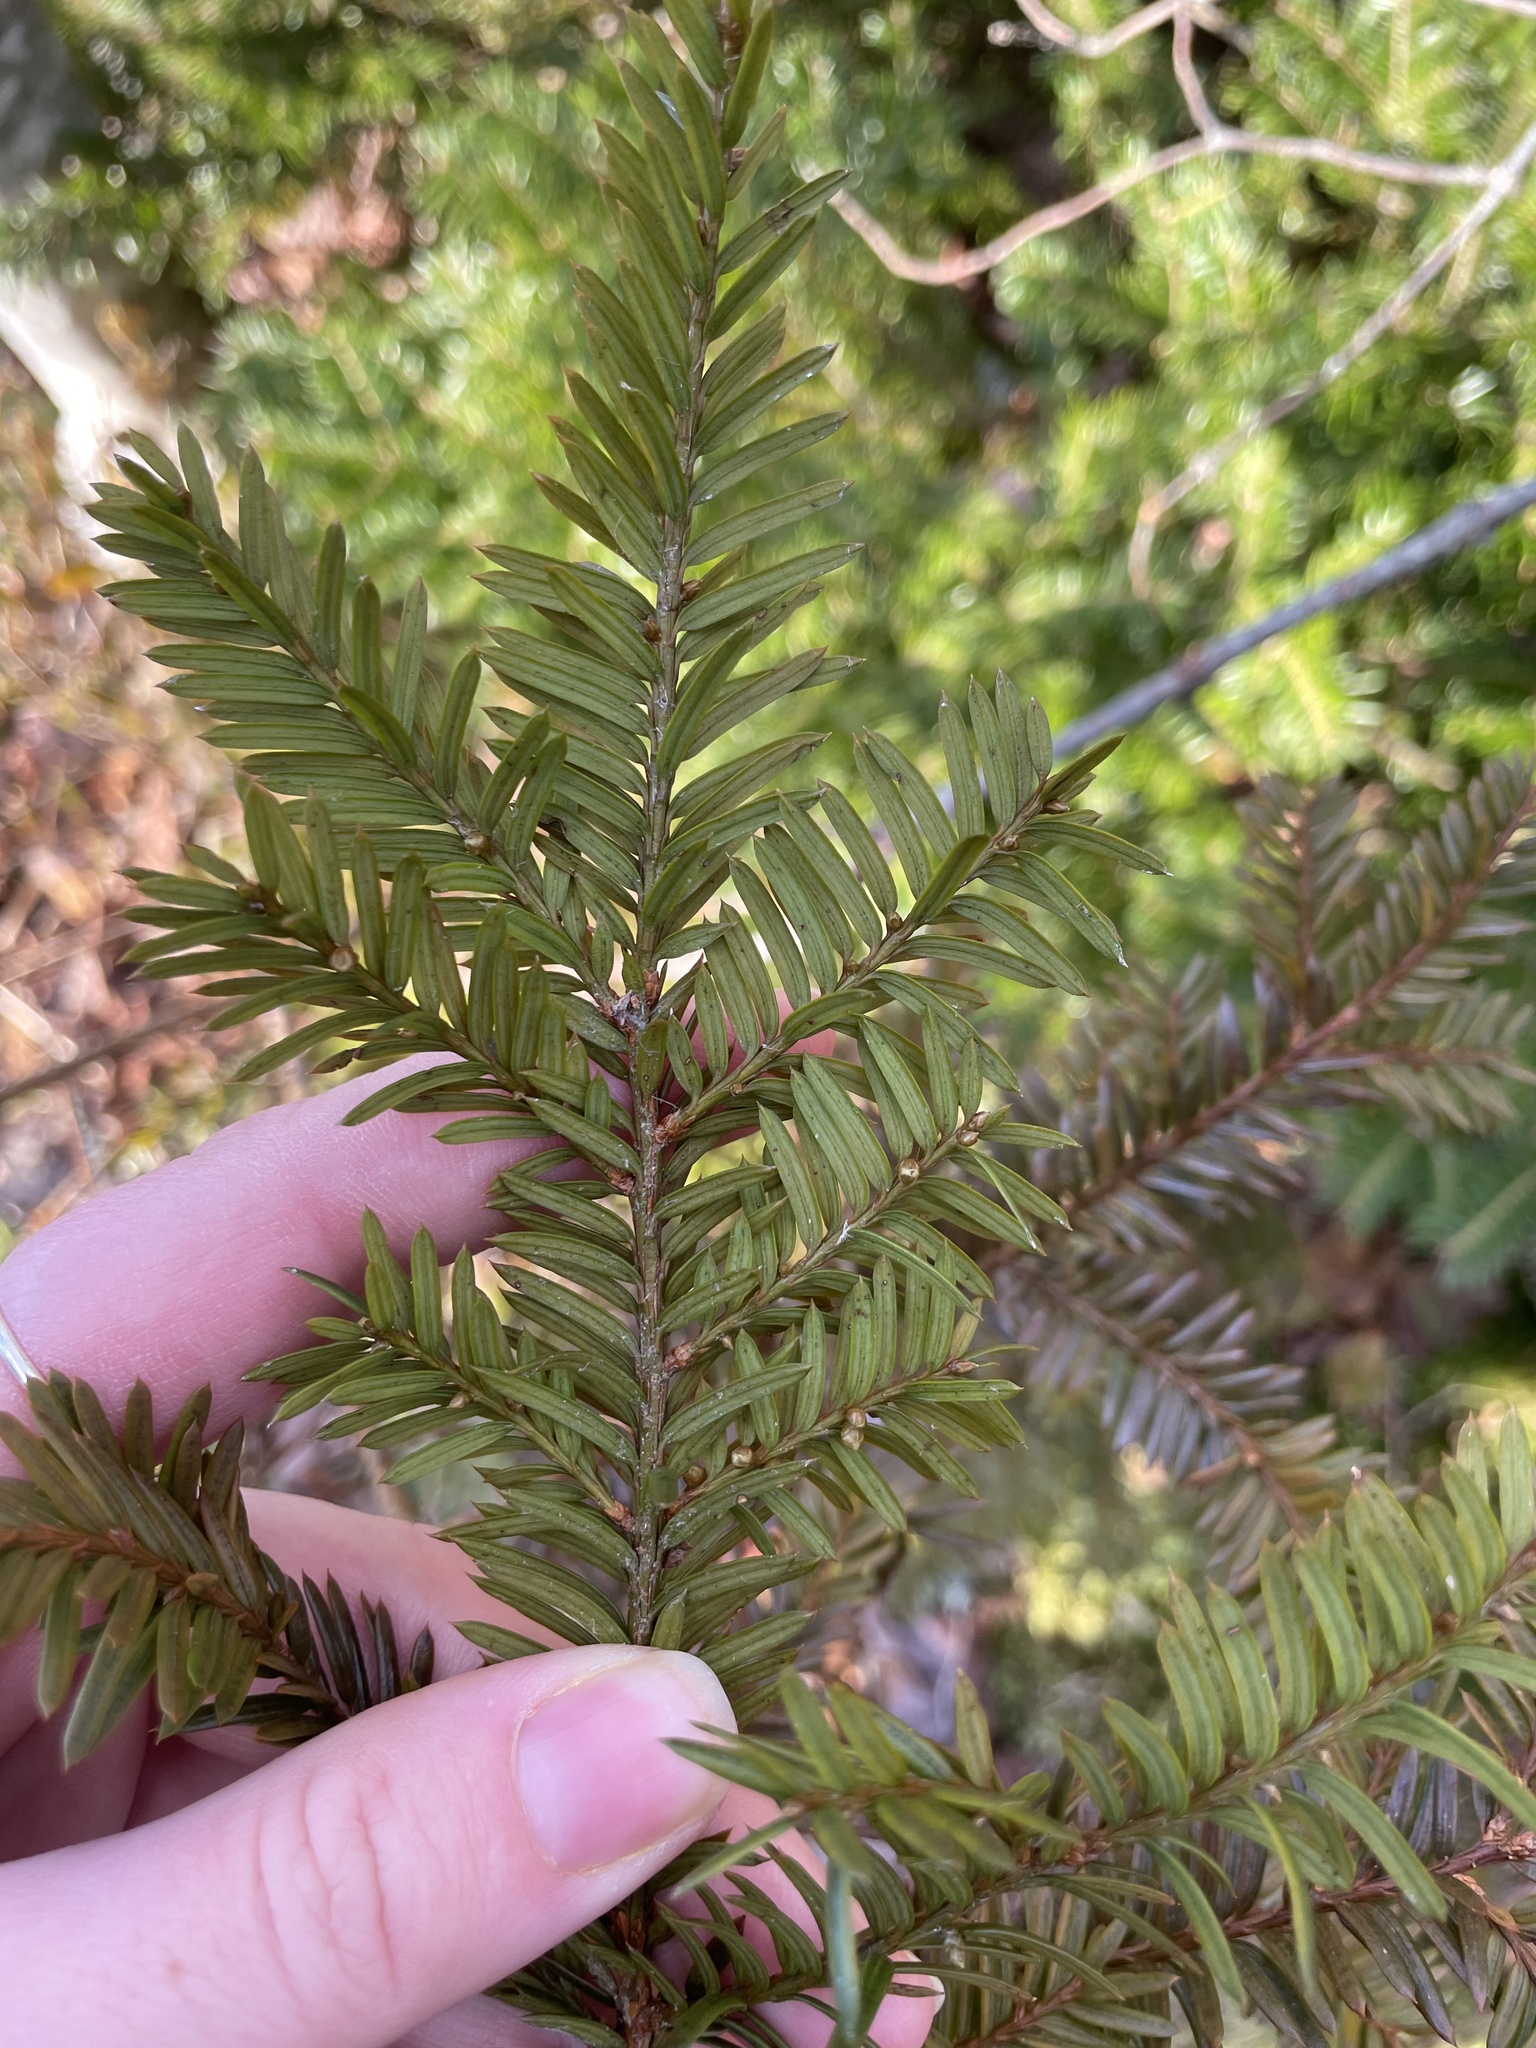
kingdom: Plantae
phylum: Tracheophyta
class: Pinopsida
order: Pinales
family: Taxaceae
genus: Taxus
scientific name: Taxus canadensis
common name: American yew
